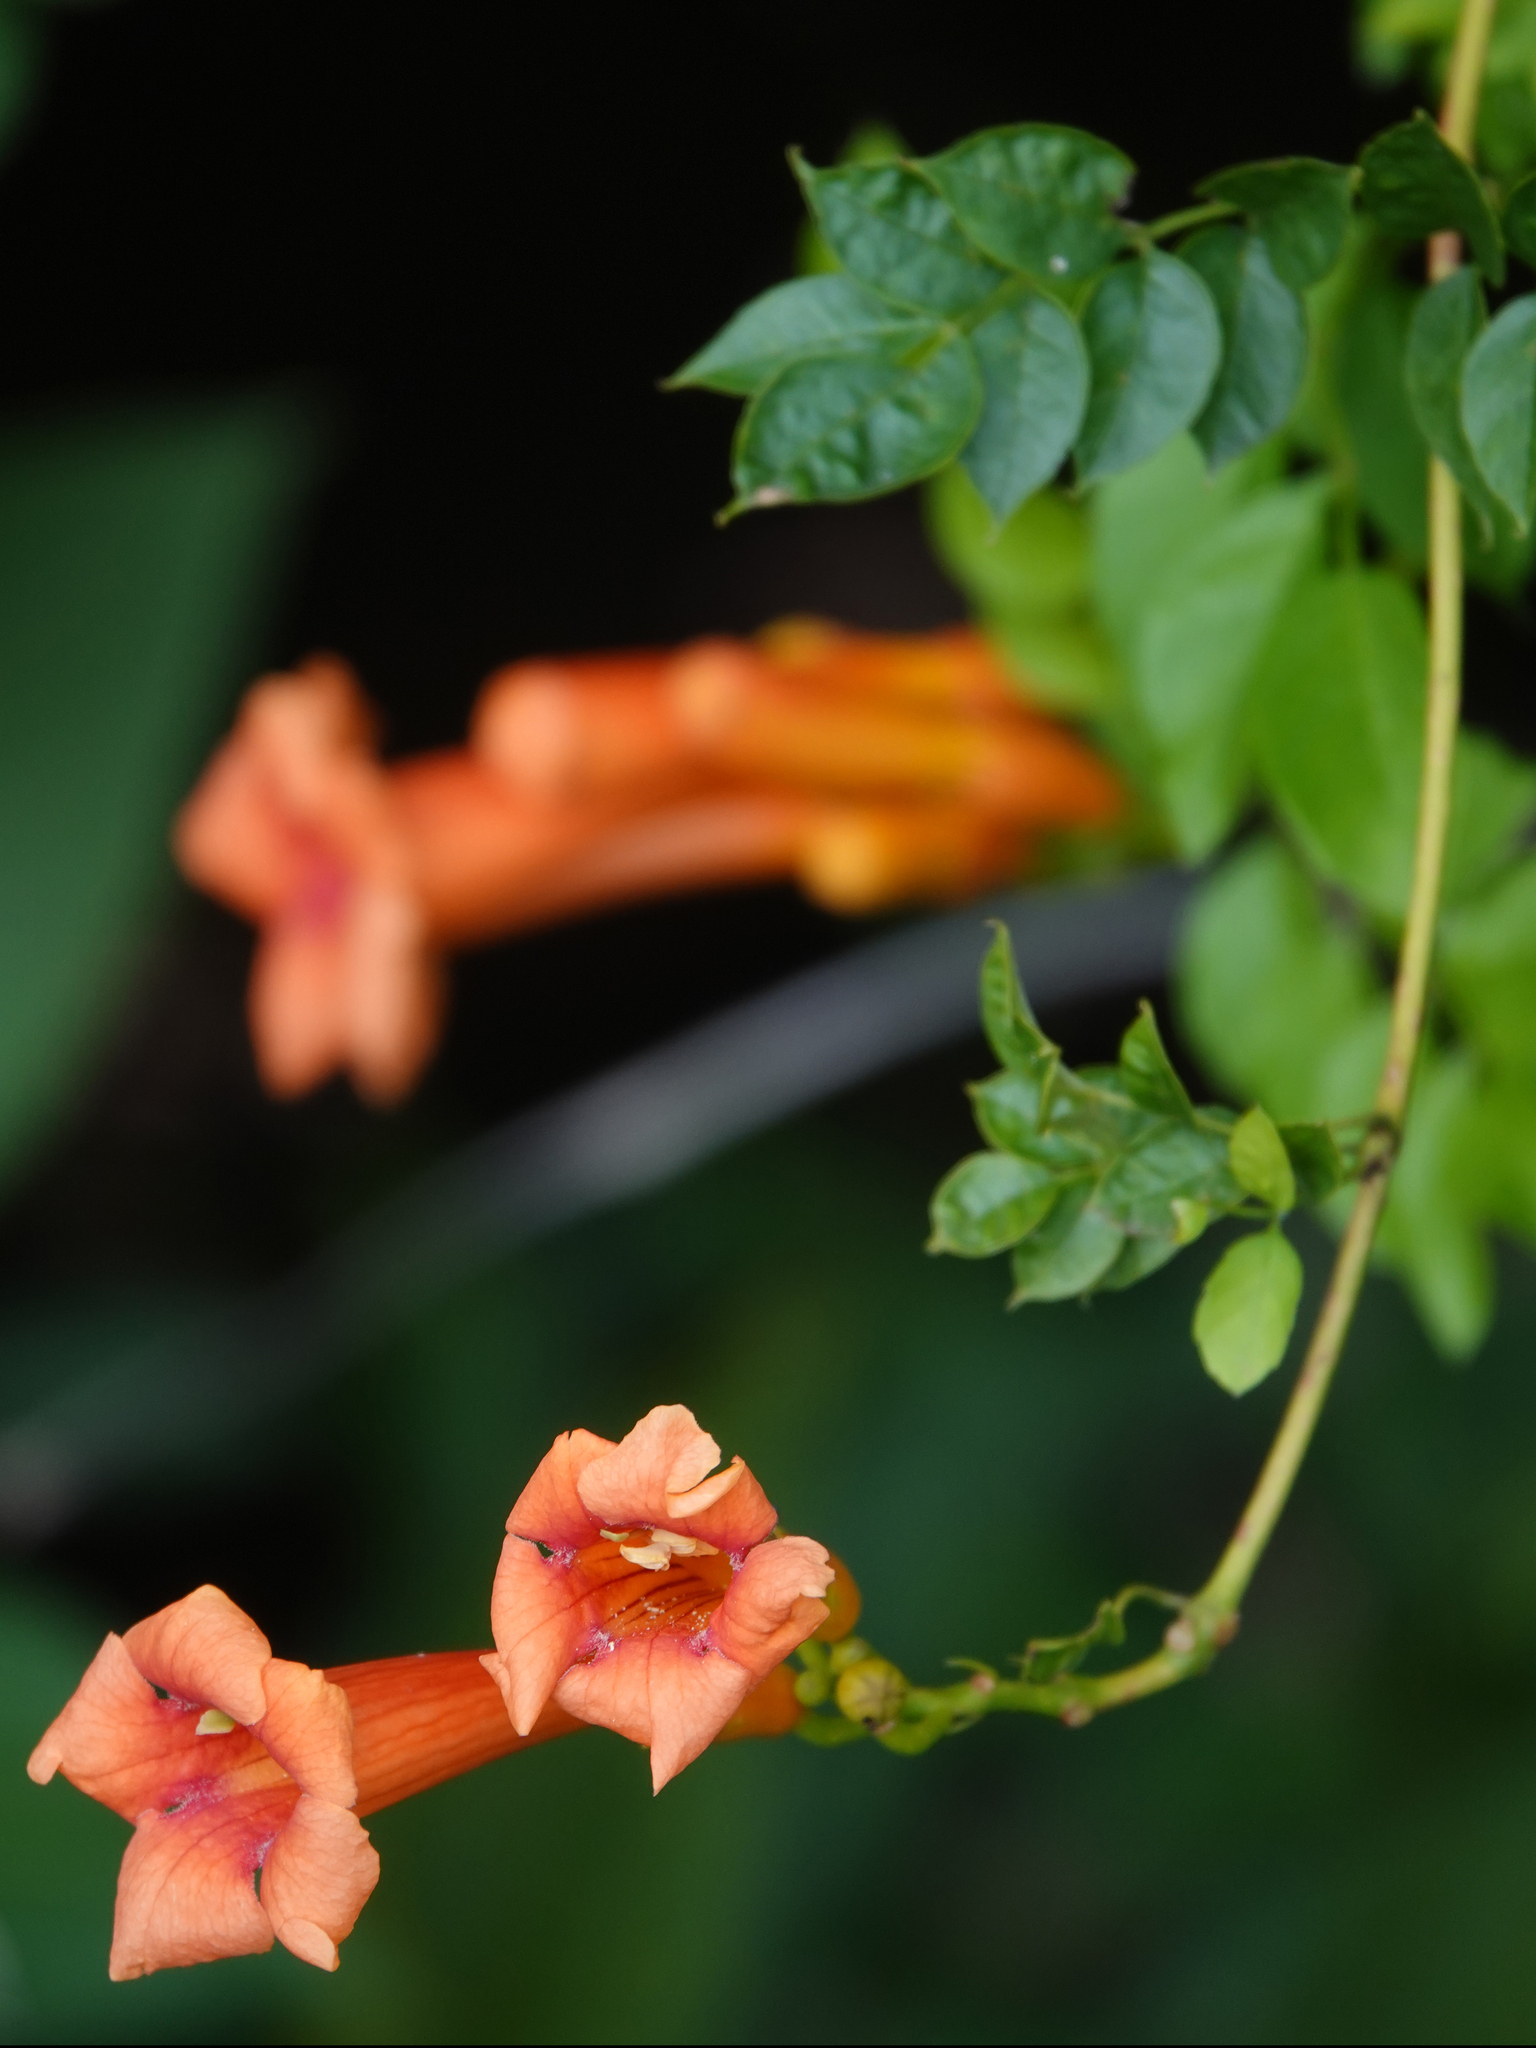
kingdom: Plantae
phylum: Tracheophyta
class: Magnoliopsida
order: Lamiales
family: Bignoniaceae
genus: Campsis
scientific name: Campsis radicans
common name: Trumpet-creeper
